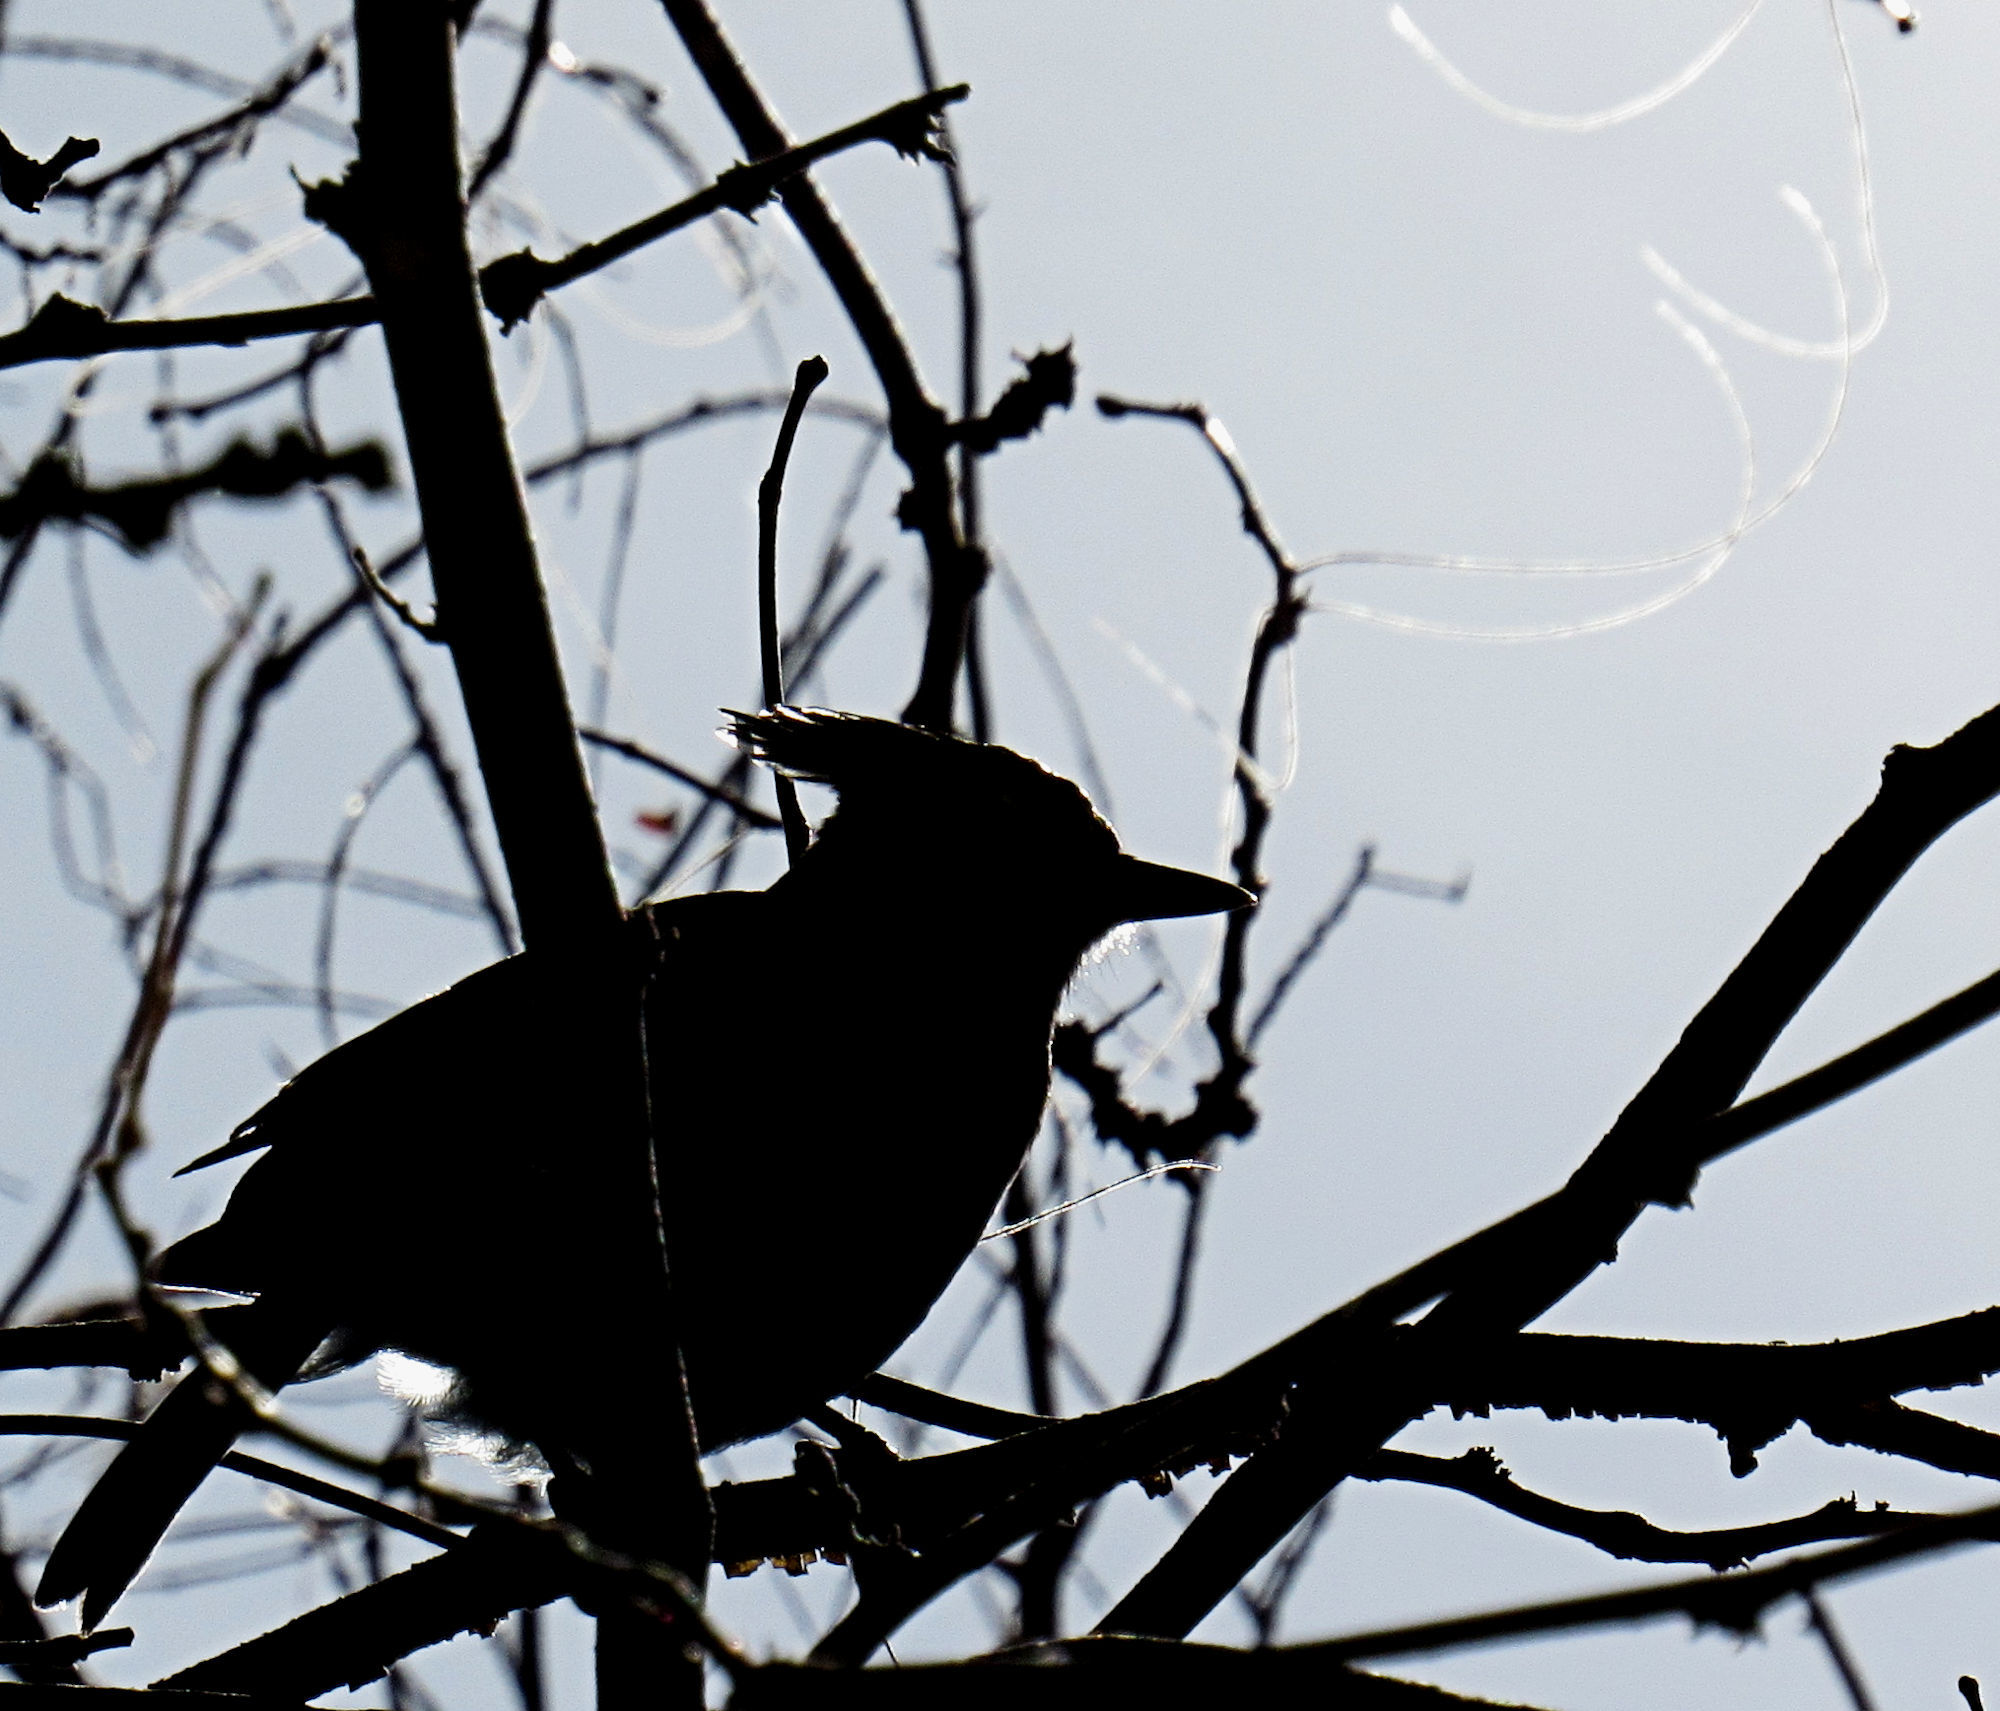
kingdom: Animalia
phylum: Chordata
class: Aves
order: Passeriformes
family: Corvidae
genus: Cyanocitta
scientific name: Cyanocitta stelleri
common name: Steller's jay
